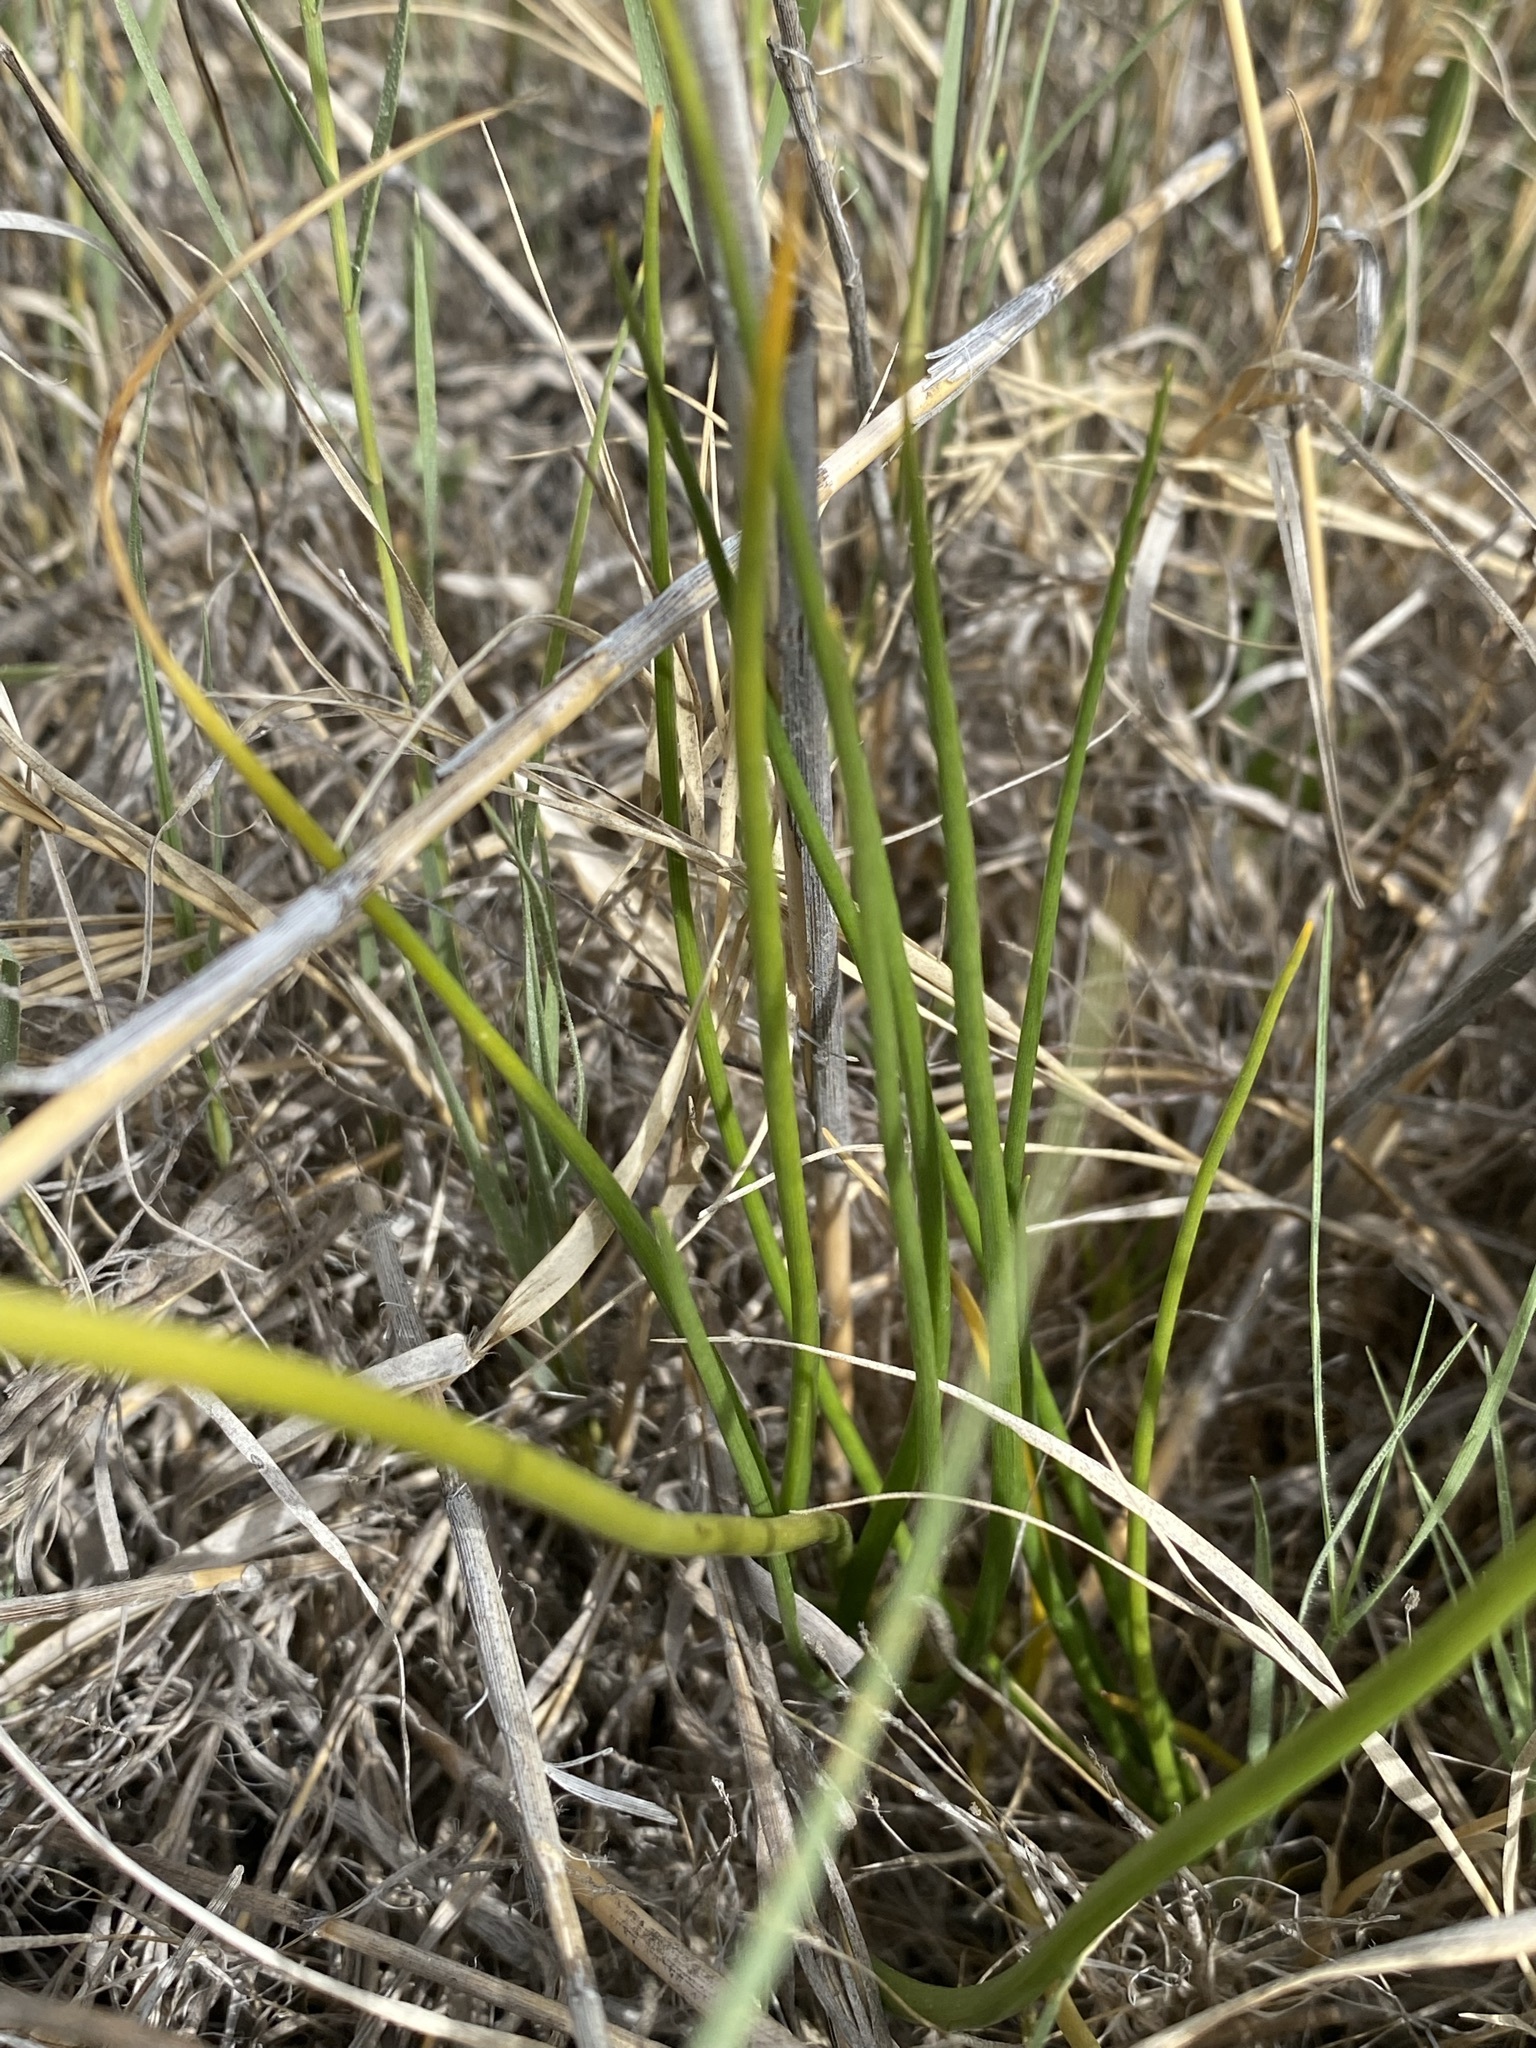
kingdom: Plantae
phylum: Tracheophyta
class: Liliopsida
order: Alismatales
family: Juncaginaceae
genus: Triglochin
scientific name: Triglochin maritima
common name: Sea arrowgrass
